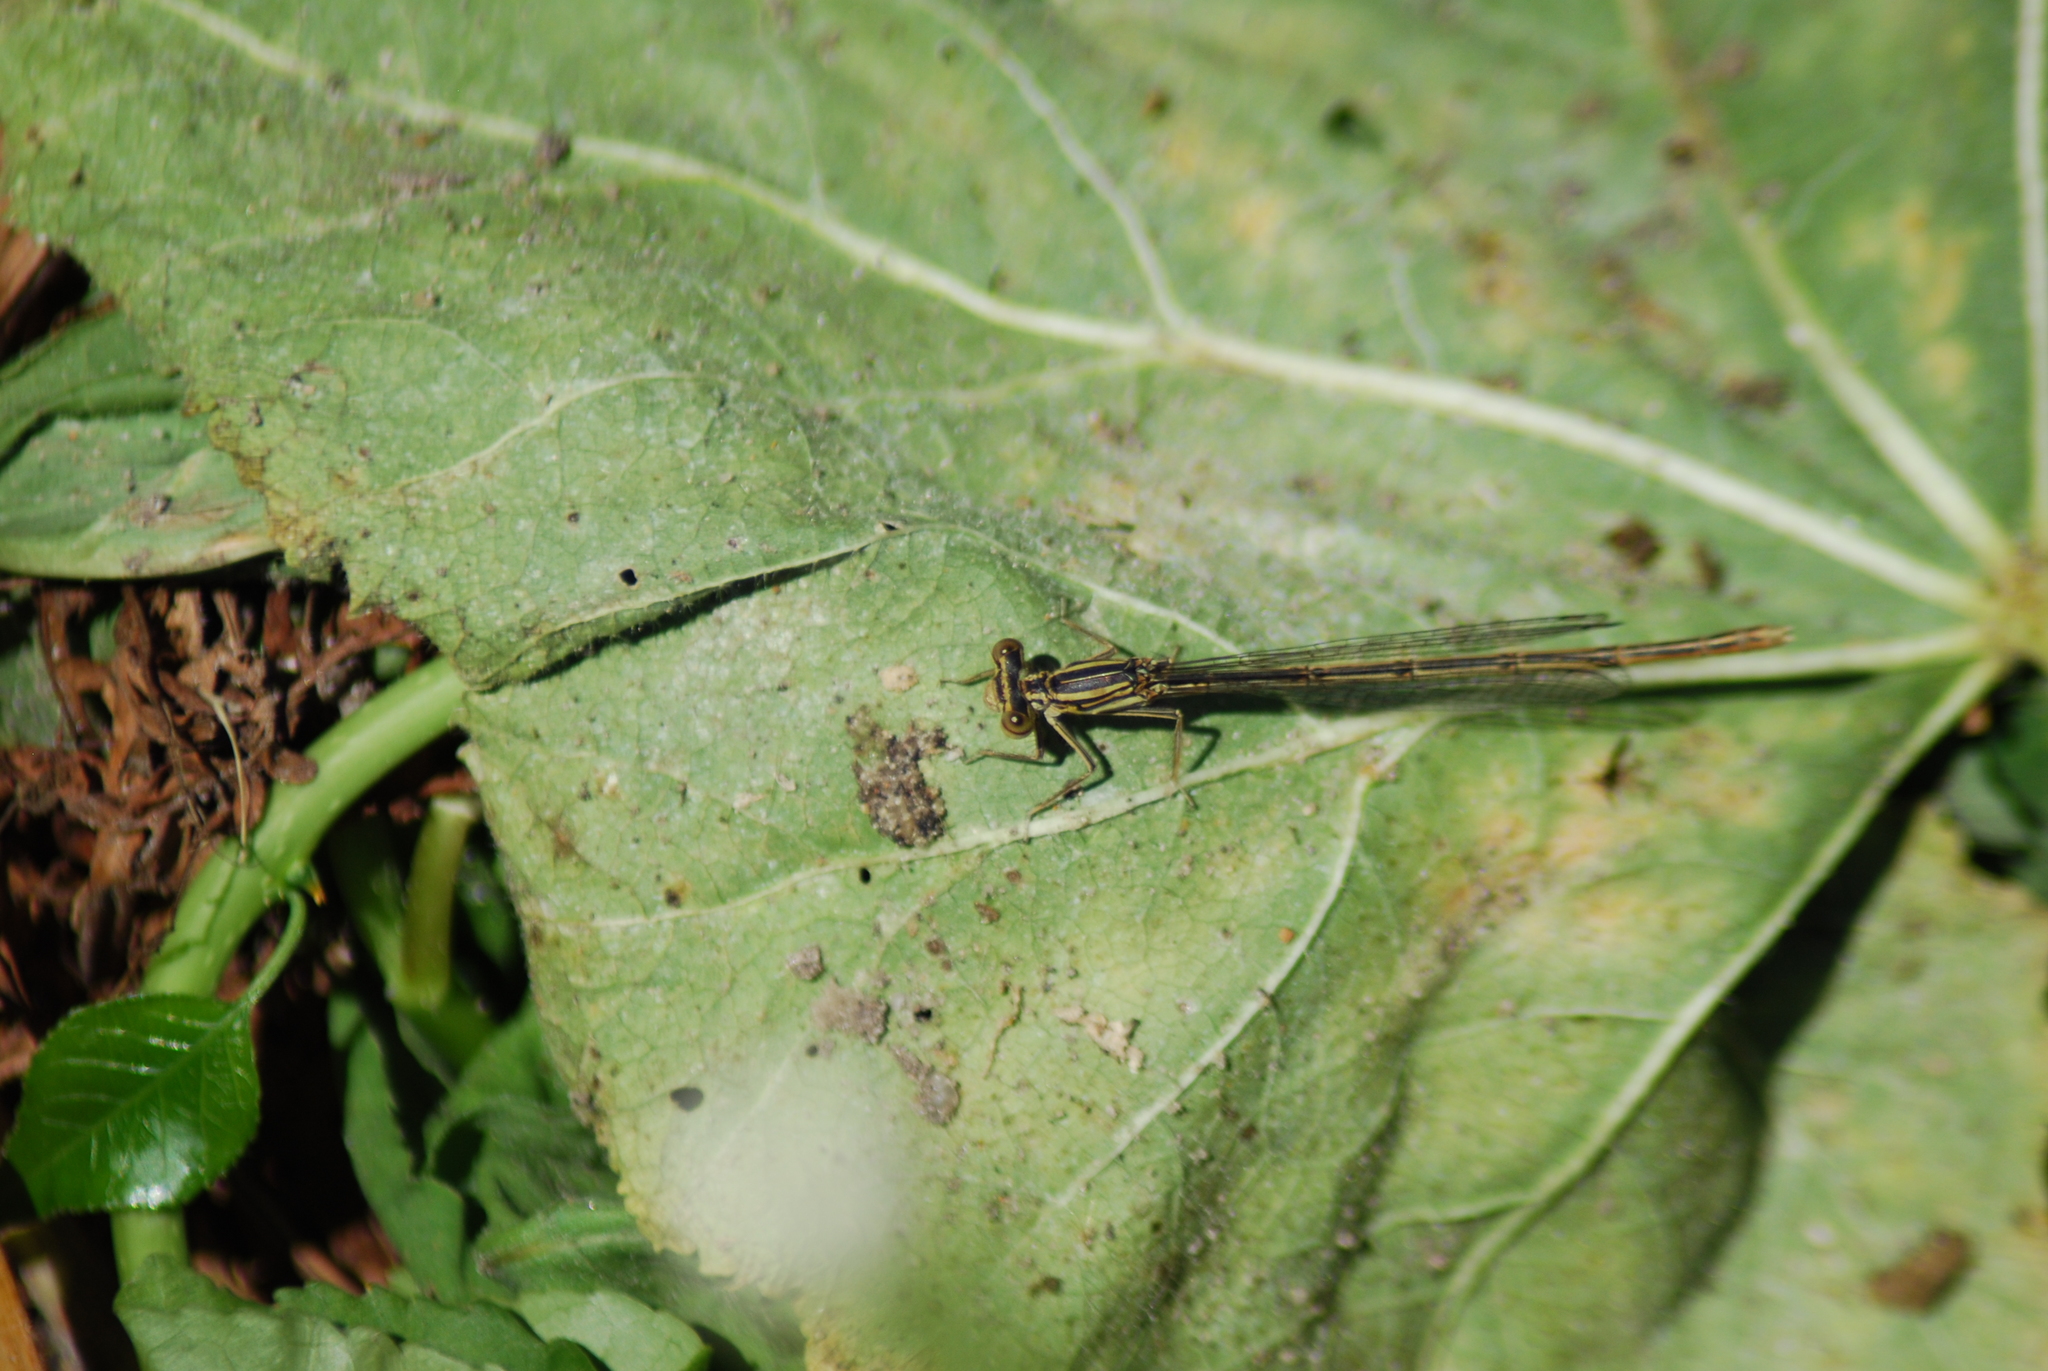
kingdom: Animalia
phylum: Arthropoda
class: Insecta
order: Odonata
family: Platycnemididae
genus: Platycnemis
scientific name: Platycnemis pennipes
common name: White-legged damselfly
